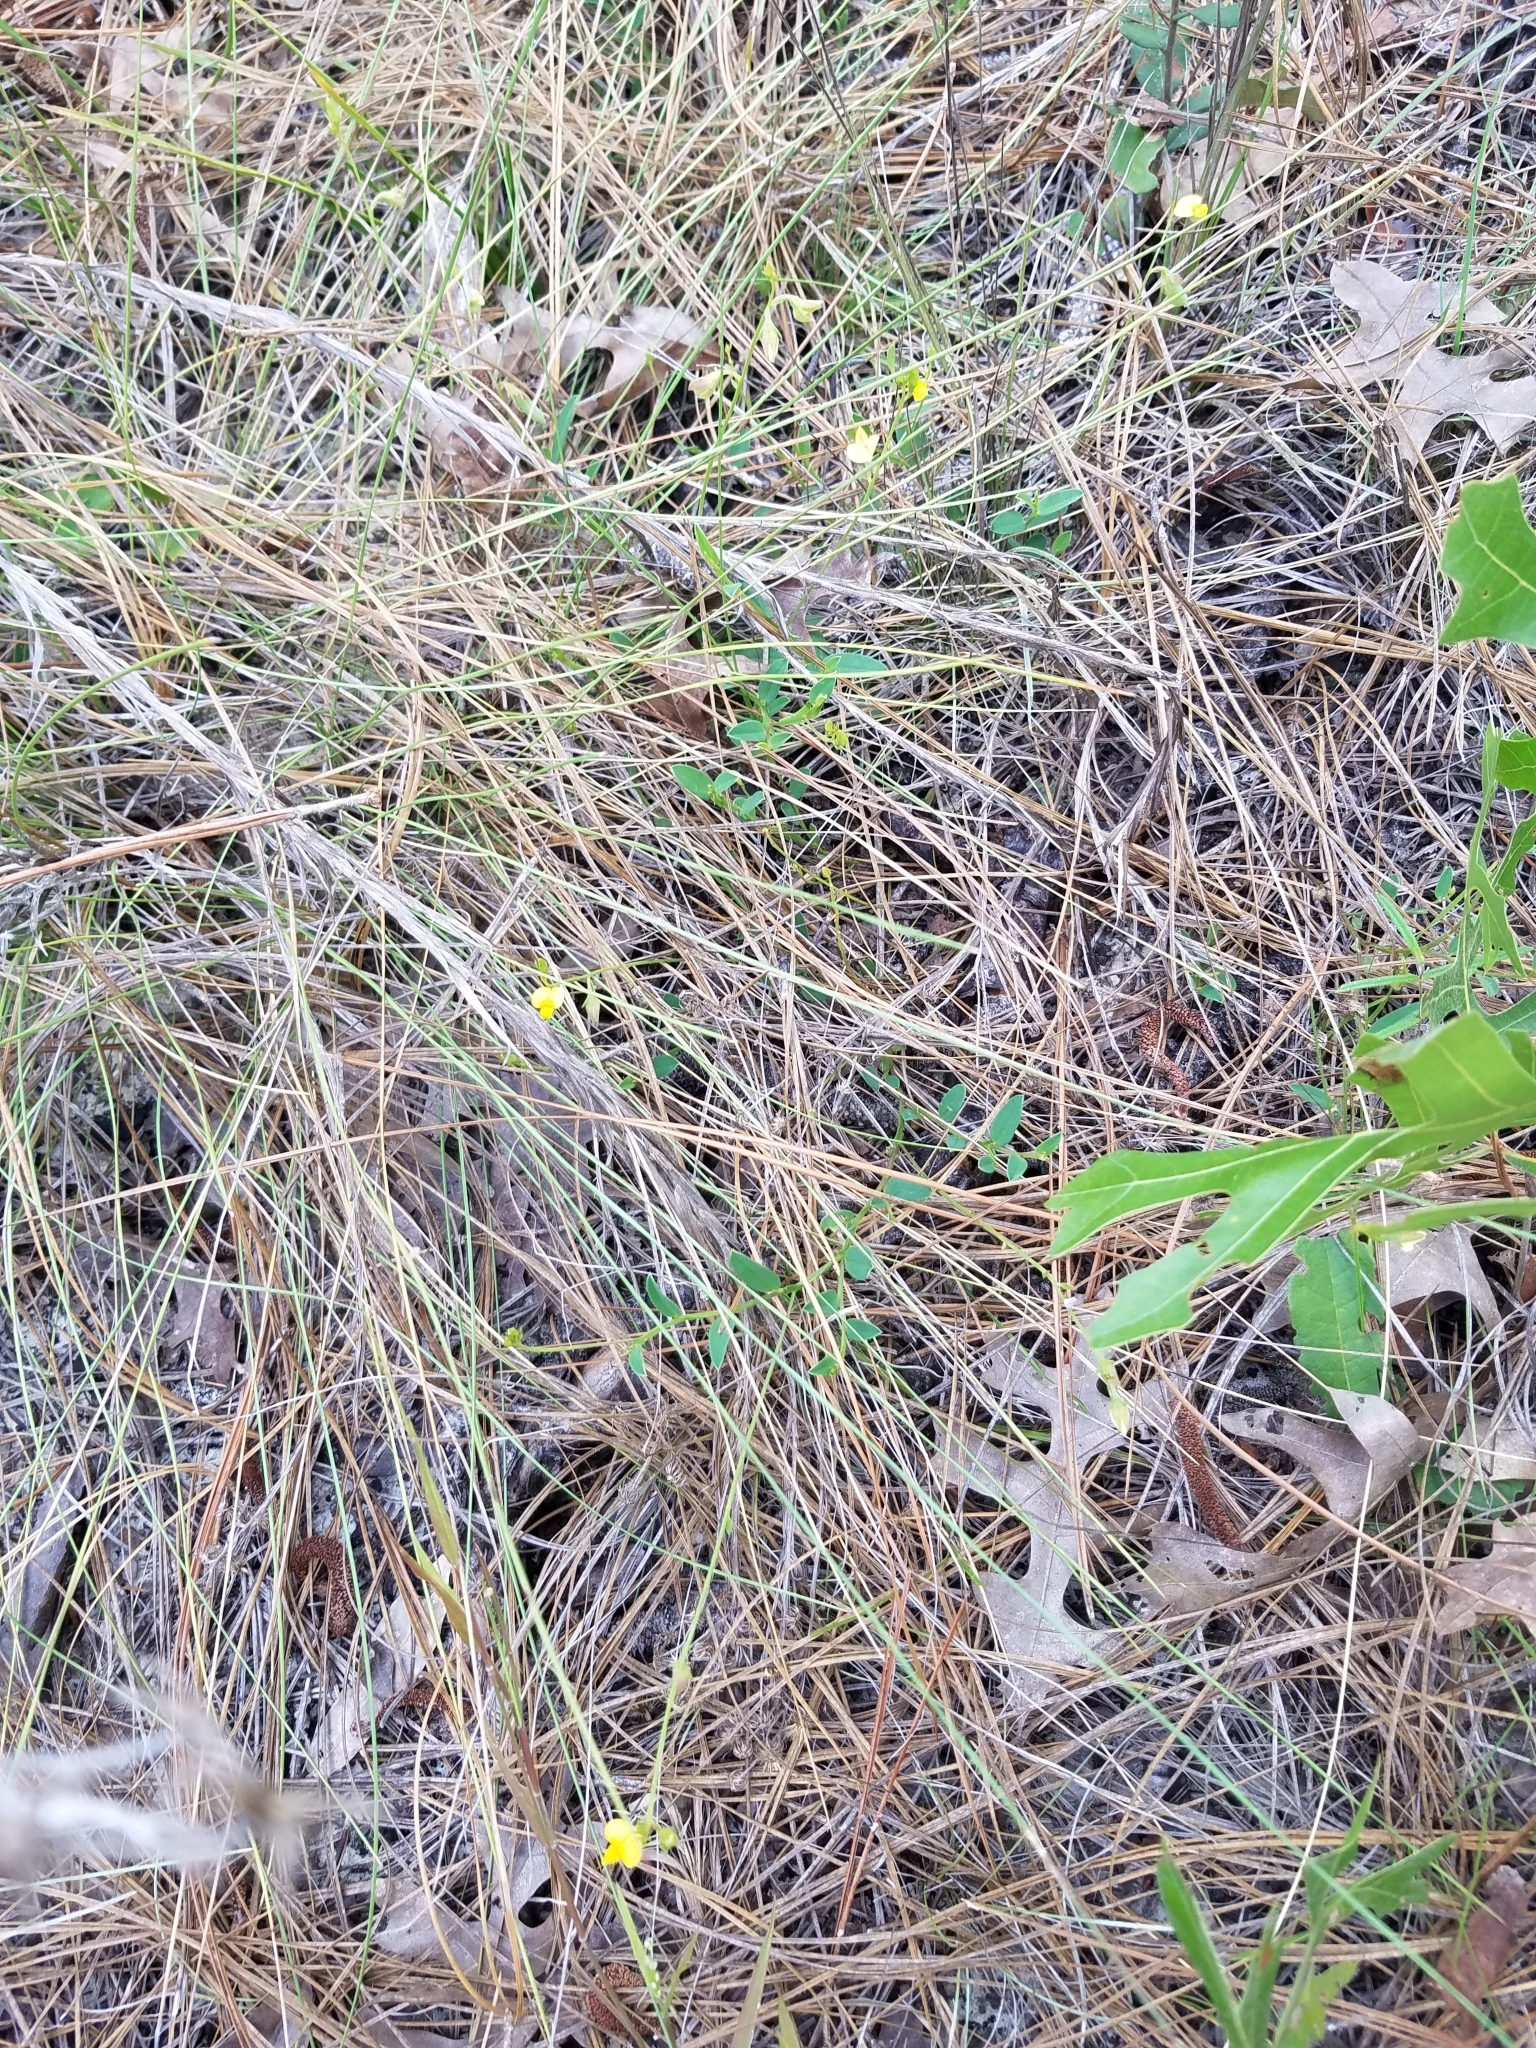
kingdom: Plantae
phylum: Tracheophyta
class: Magnoliopsida
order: Fabales
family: Fabaceae
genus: Crotalaria
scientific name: Crotalaria rotundifolia
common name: Prostrate rattlebox
